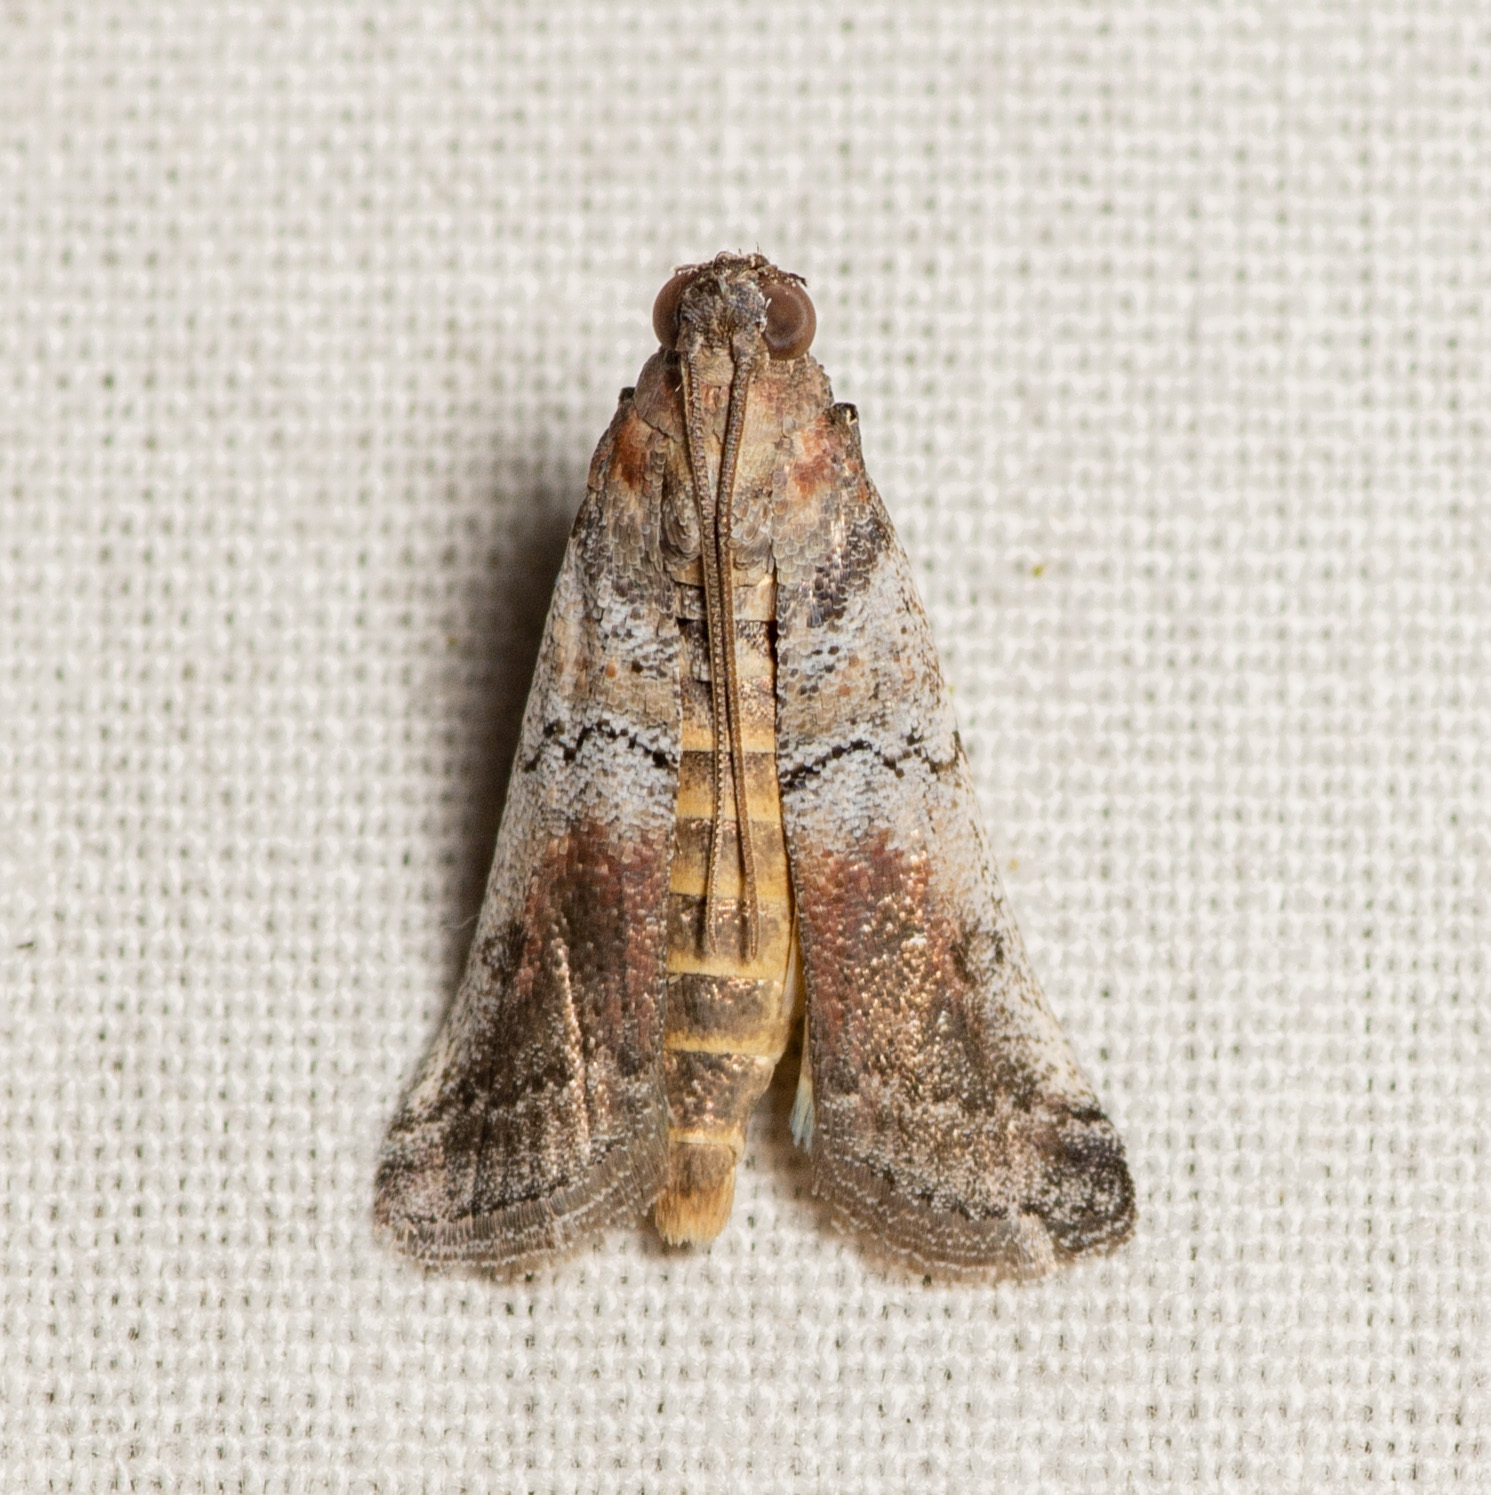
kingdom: Animalia
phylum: Arthropoda
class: Insecta
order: Lepidoptera
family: Pyralidae
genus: Chararica
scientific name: Chararica hystriculella
